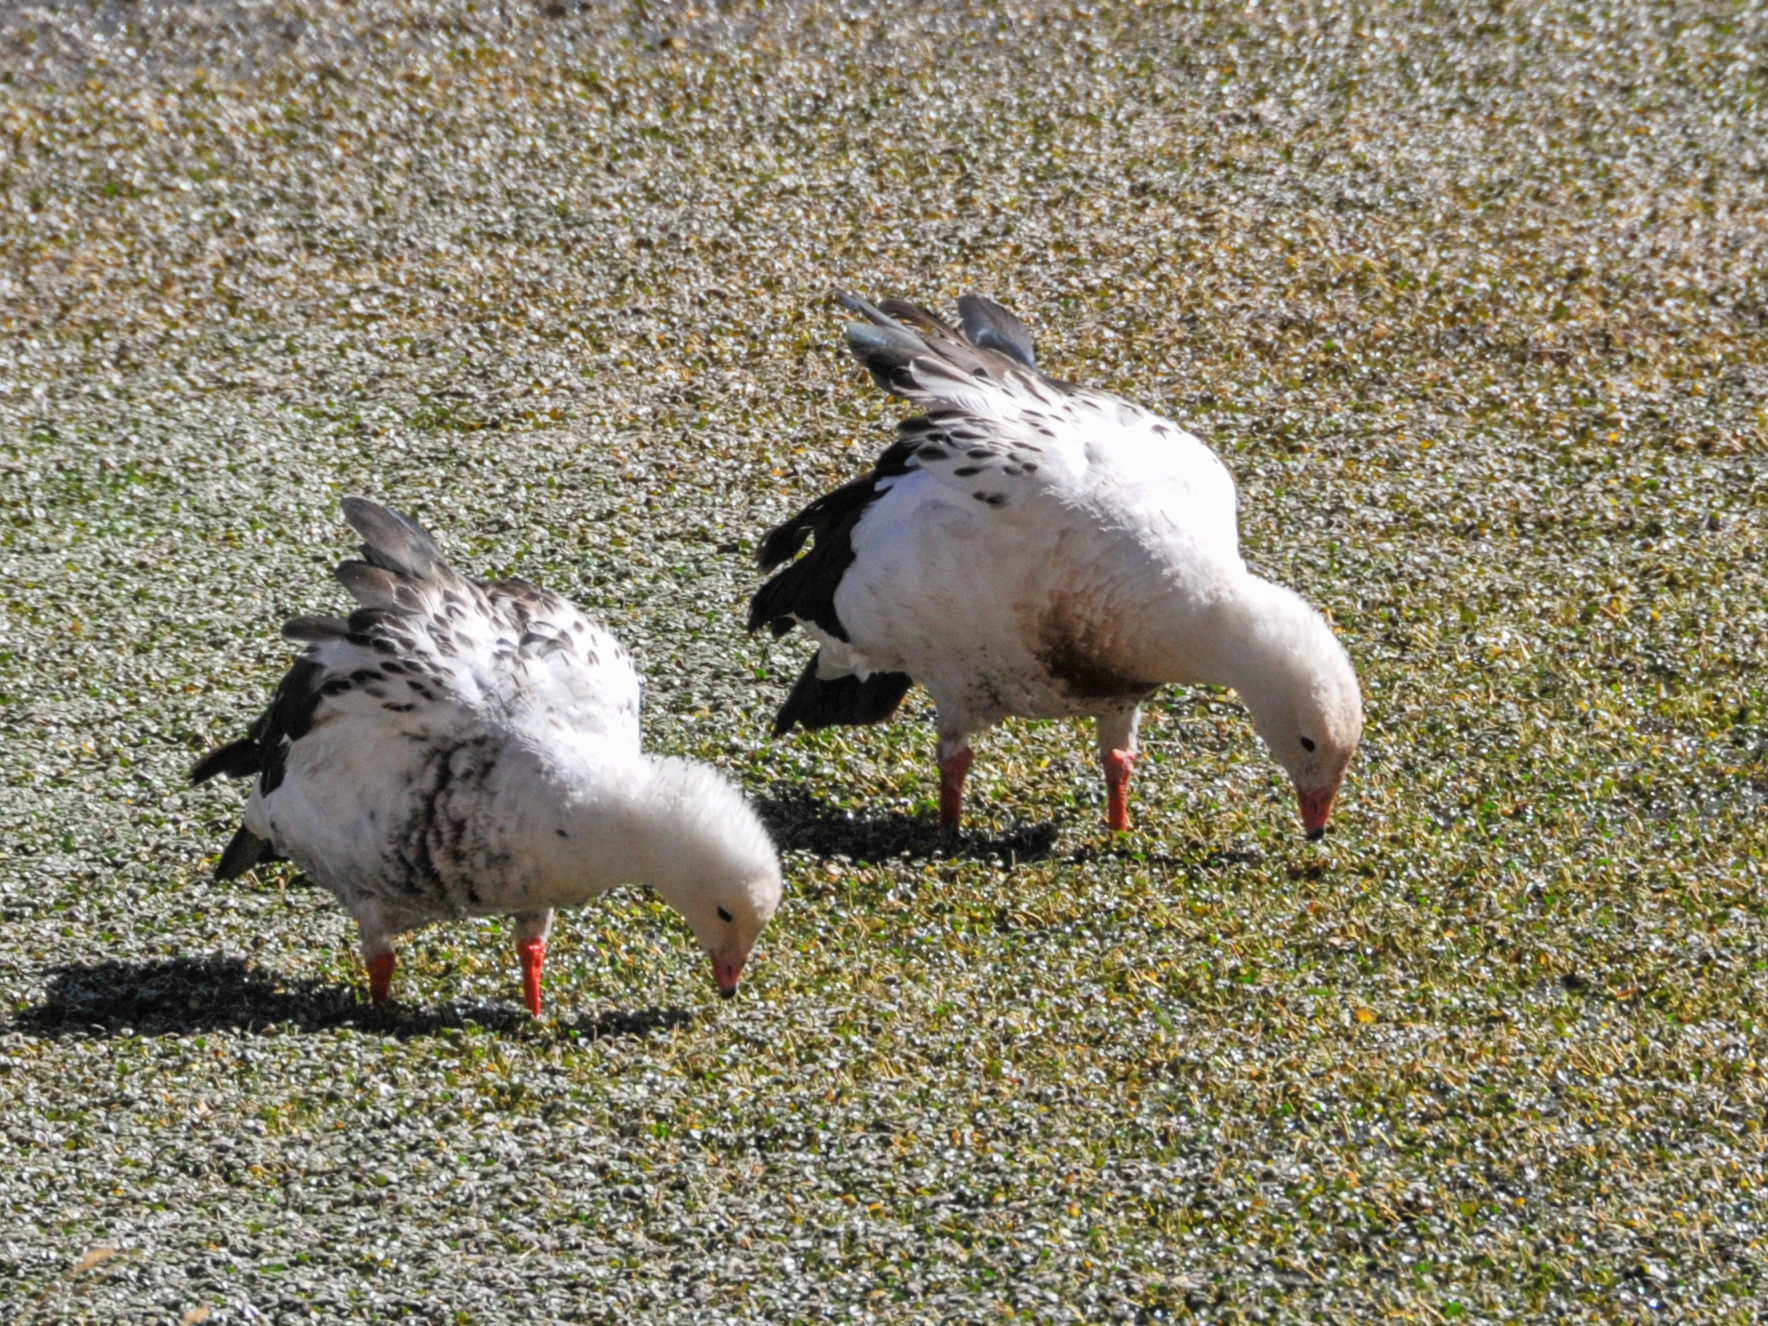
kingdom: Animalia
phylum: Chordata
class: Aves
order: Anseriformes
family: Anatidae
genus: Chloephaga
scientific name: Chloephaga melanoptera
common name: Andean goose
